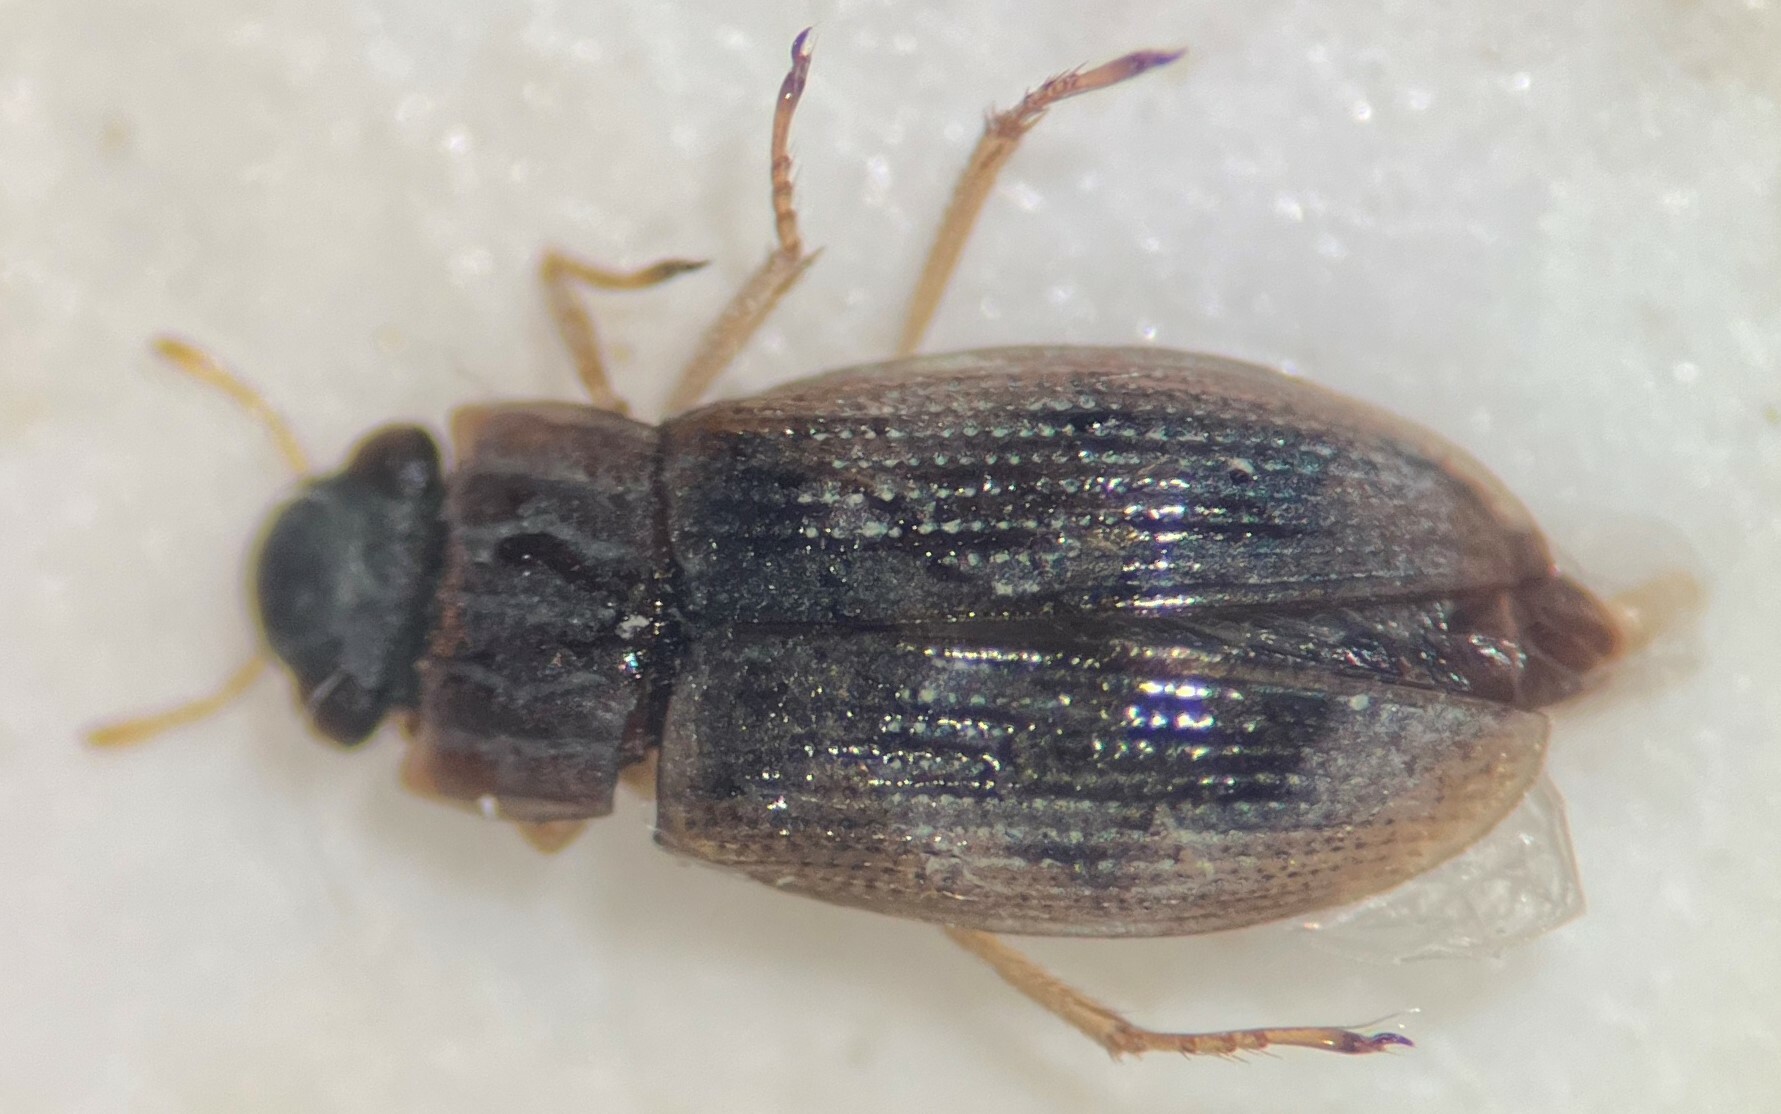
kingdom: Animalia
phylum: Arthropoda
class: Insecta
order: Coleoptera
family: Helophoridae
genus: Helophorus
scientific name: Helophorus linearis
